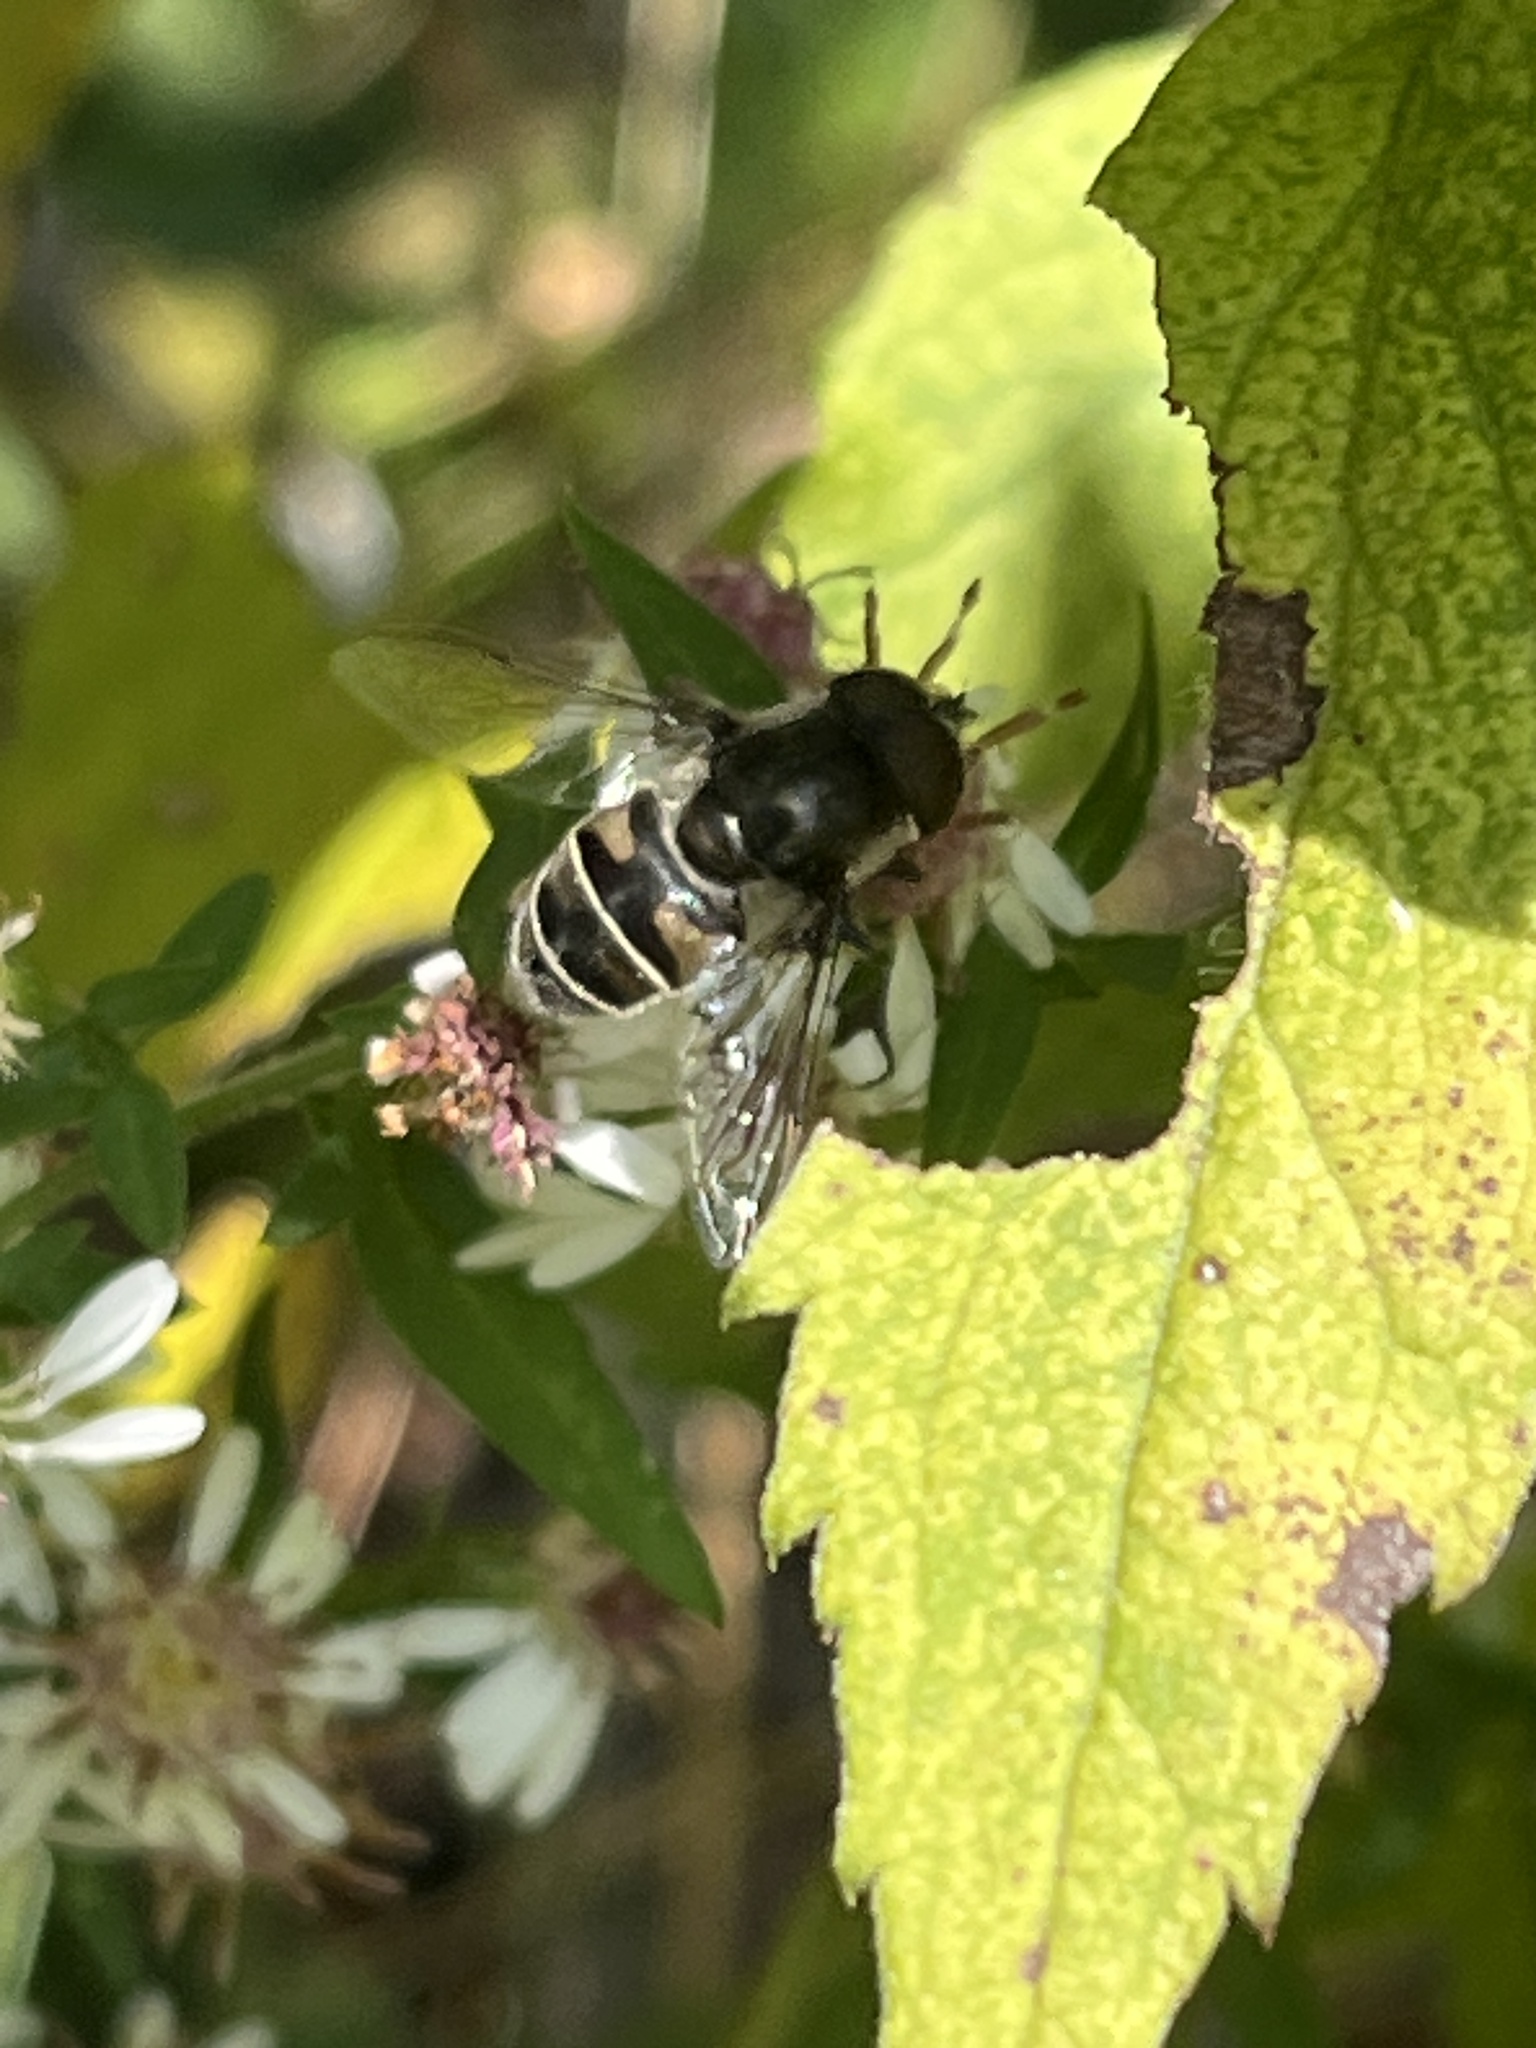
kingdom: Animalia
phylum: Arthropoda
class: Insecta
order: Diptera
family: Syrphidae
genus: Eristalis
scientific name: Eristalis dimidiata
